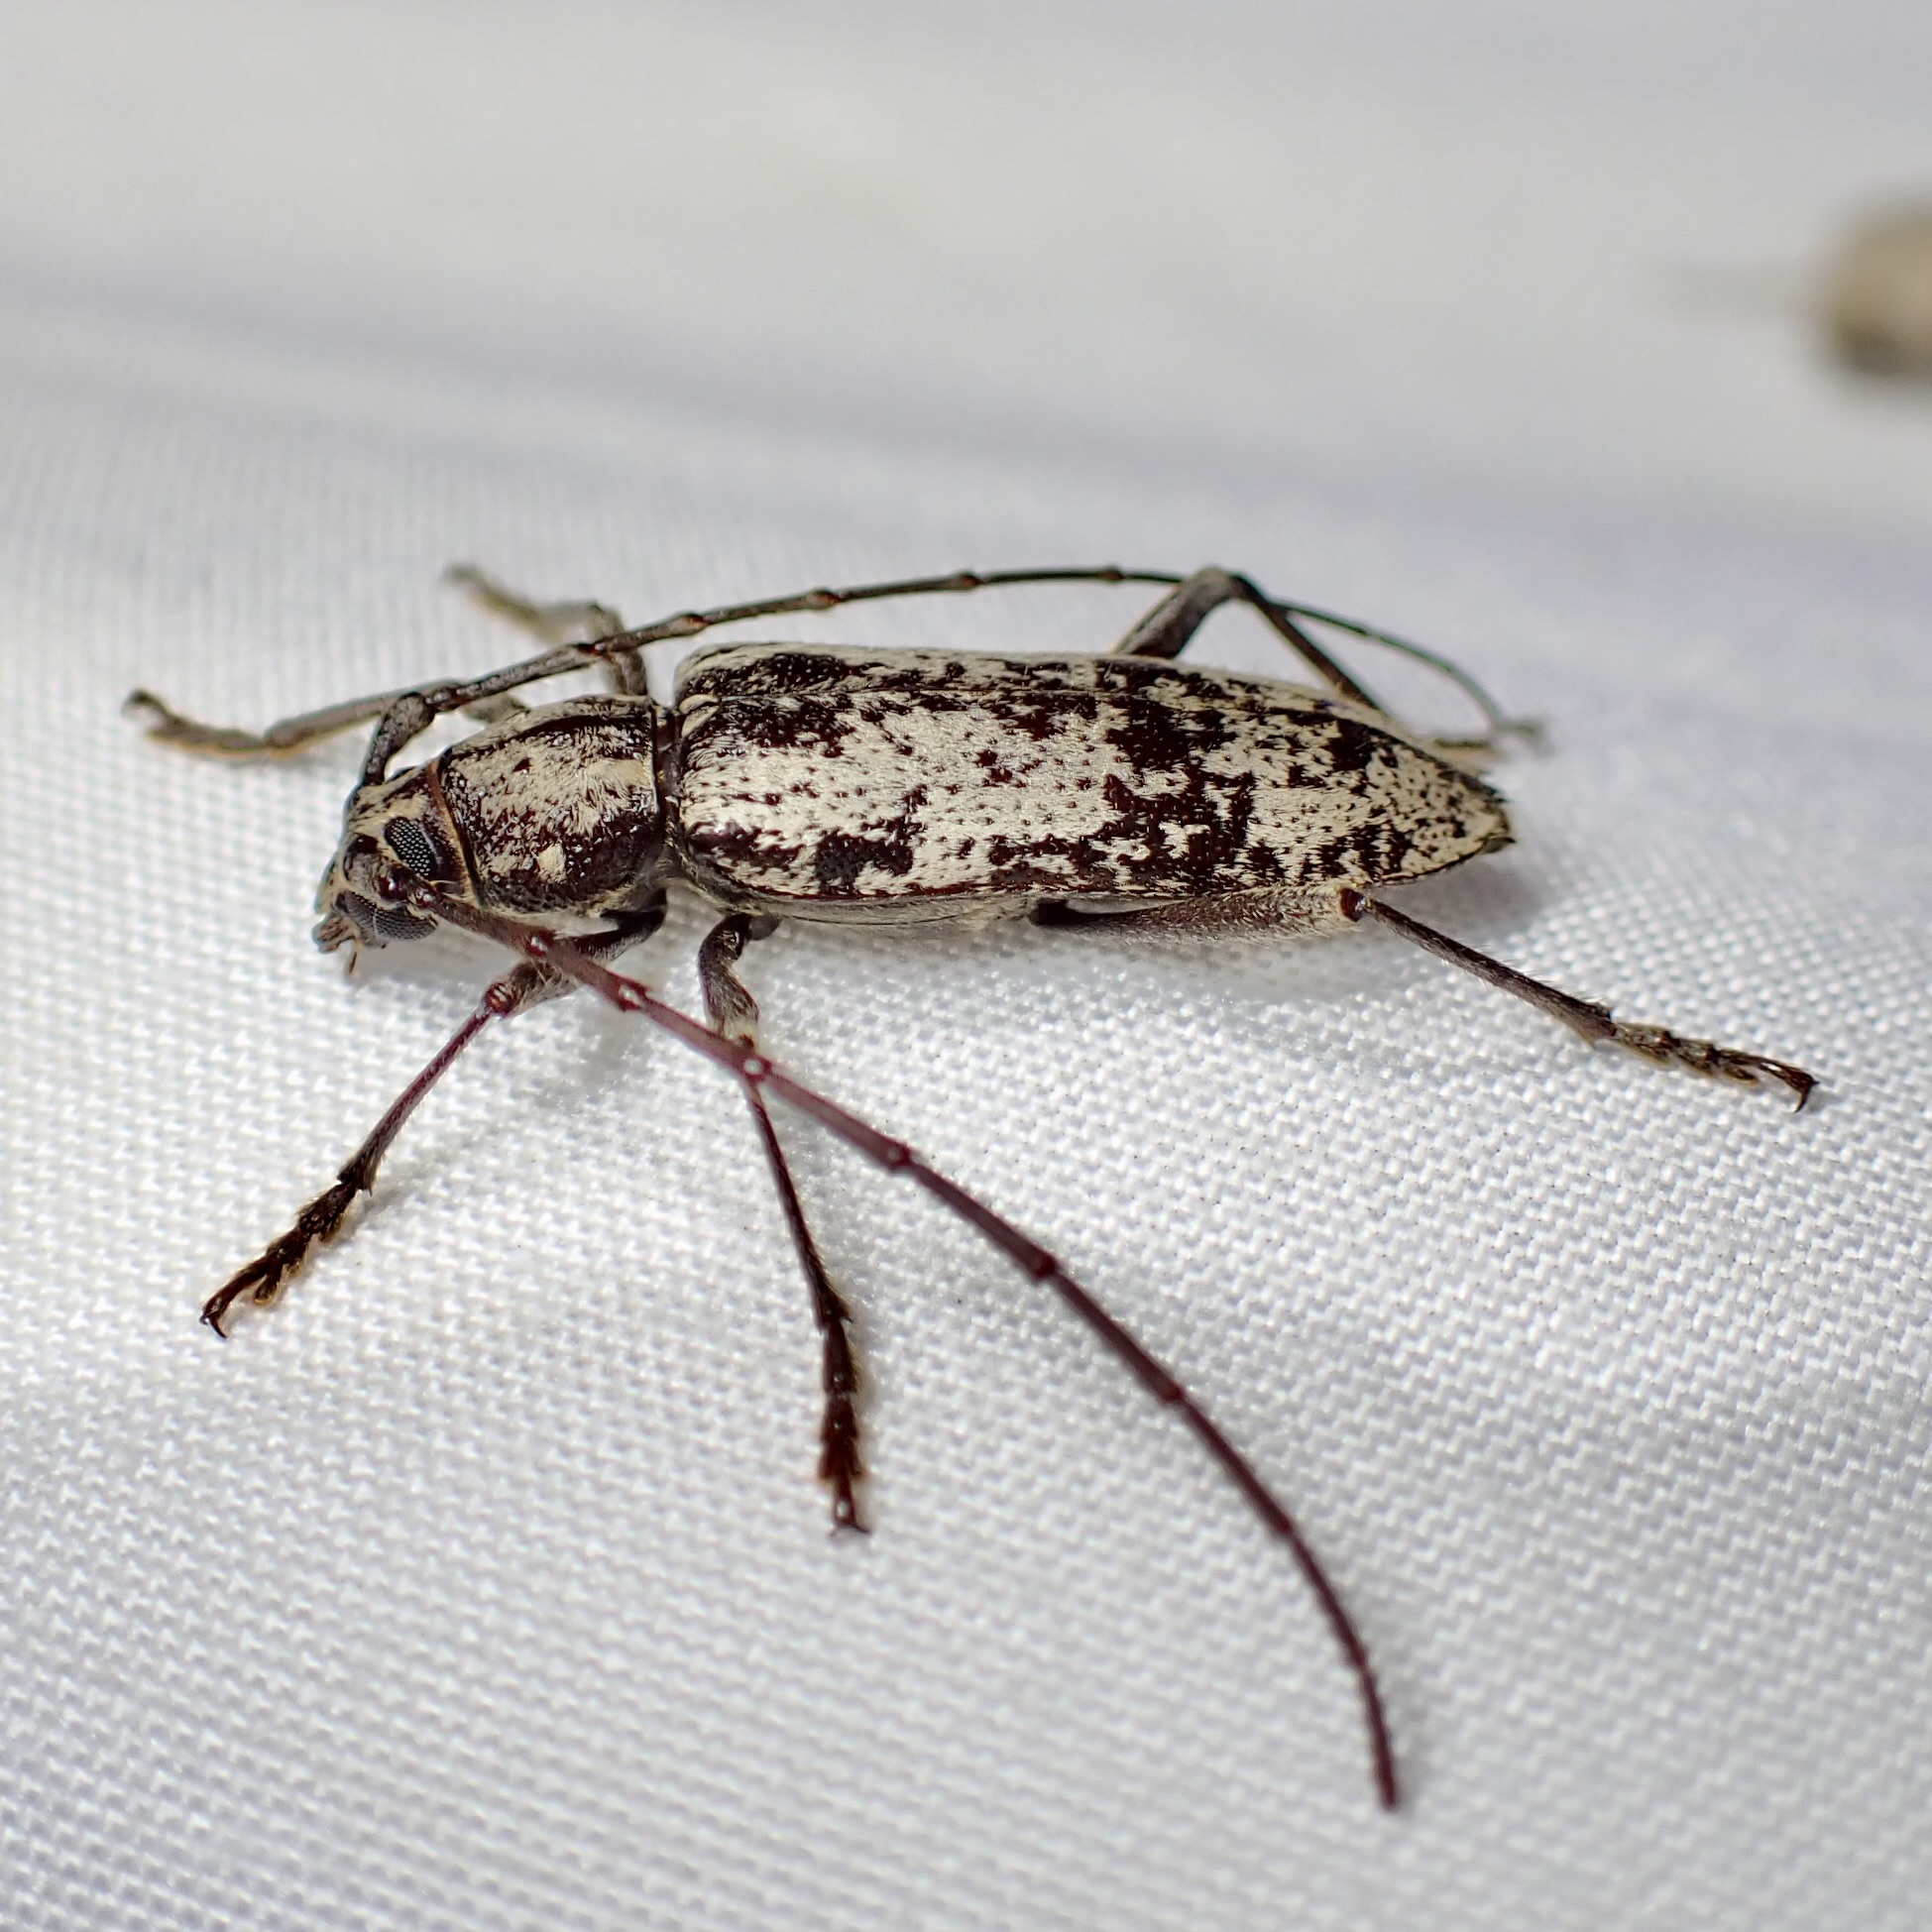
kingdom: Animalia
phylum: Arthropoda
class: Insecta
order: Coleoptera
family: Cerambycidae
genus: Enaphalodes
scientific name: Enaphalodes niveitectus
